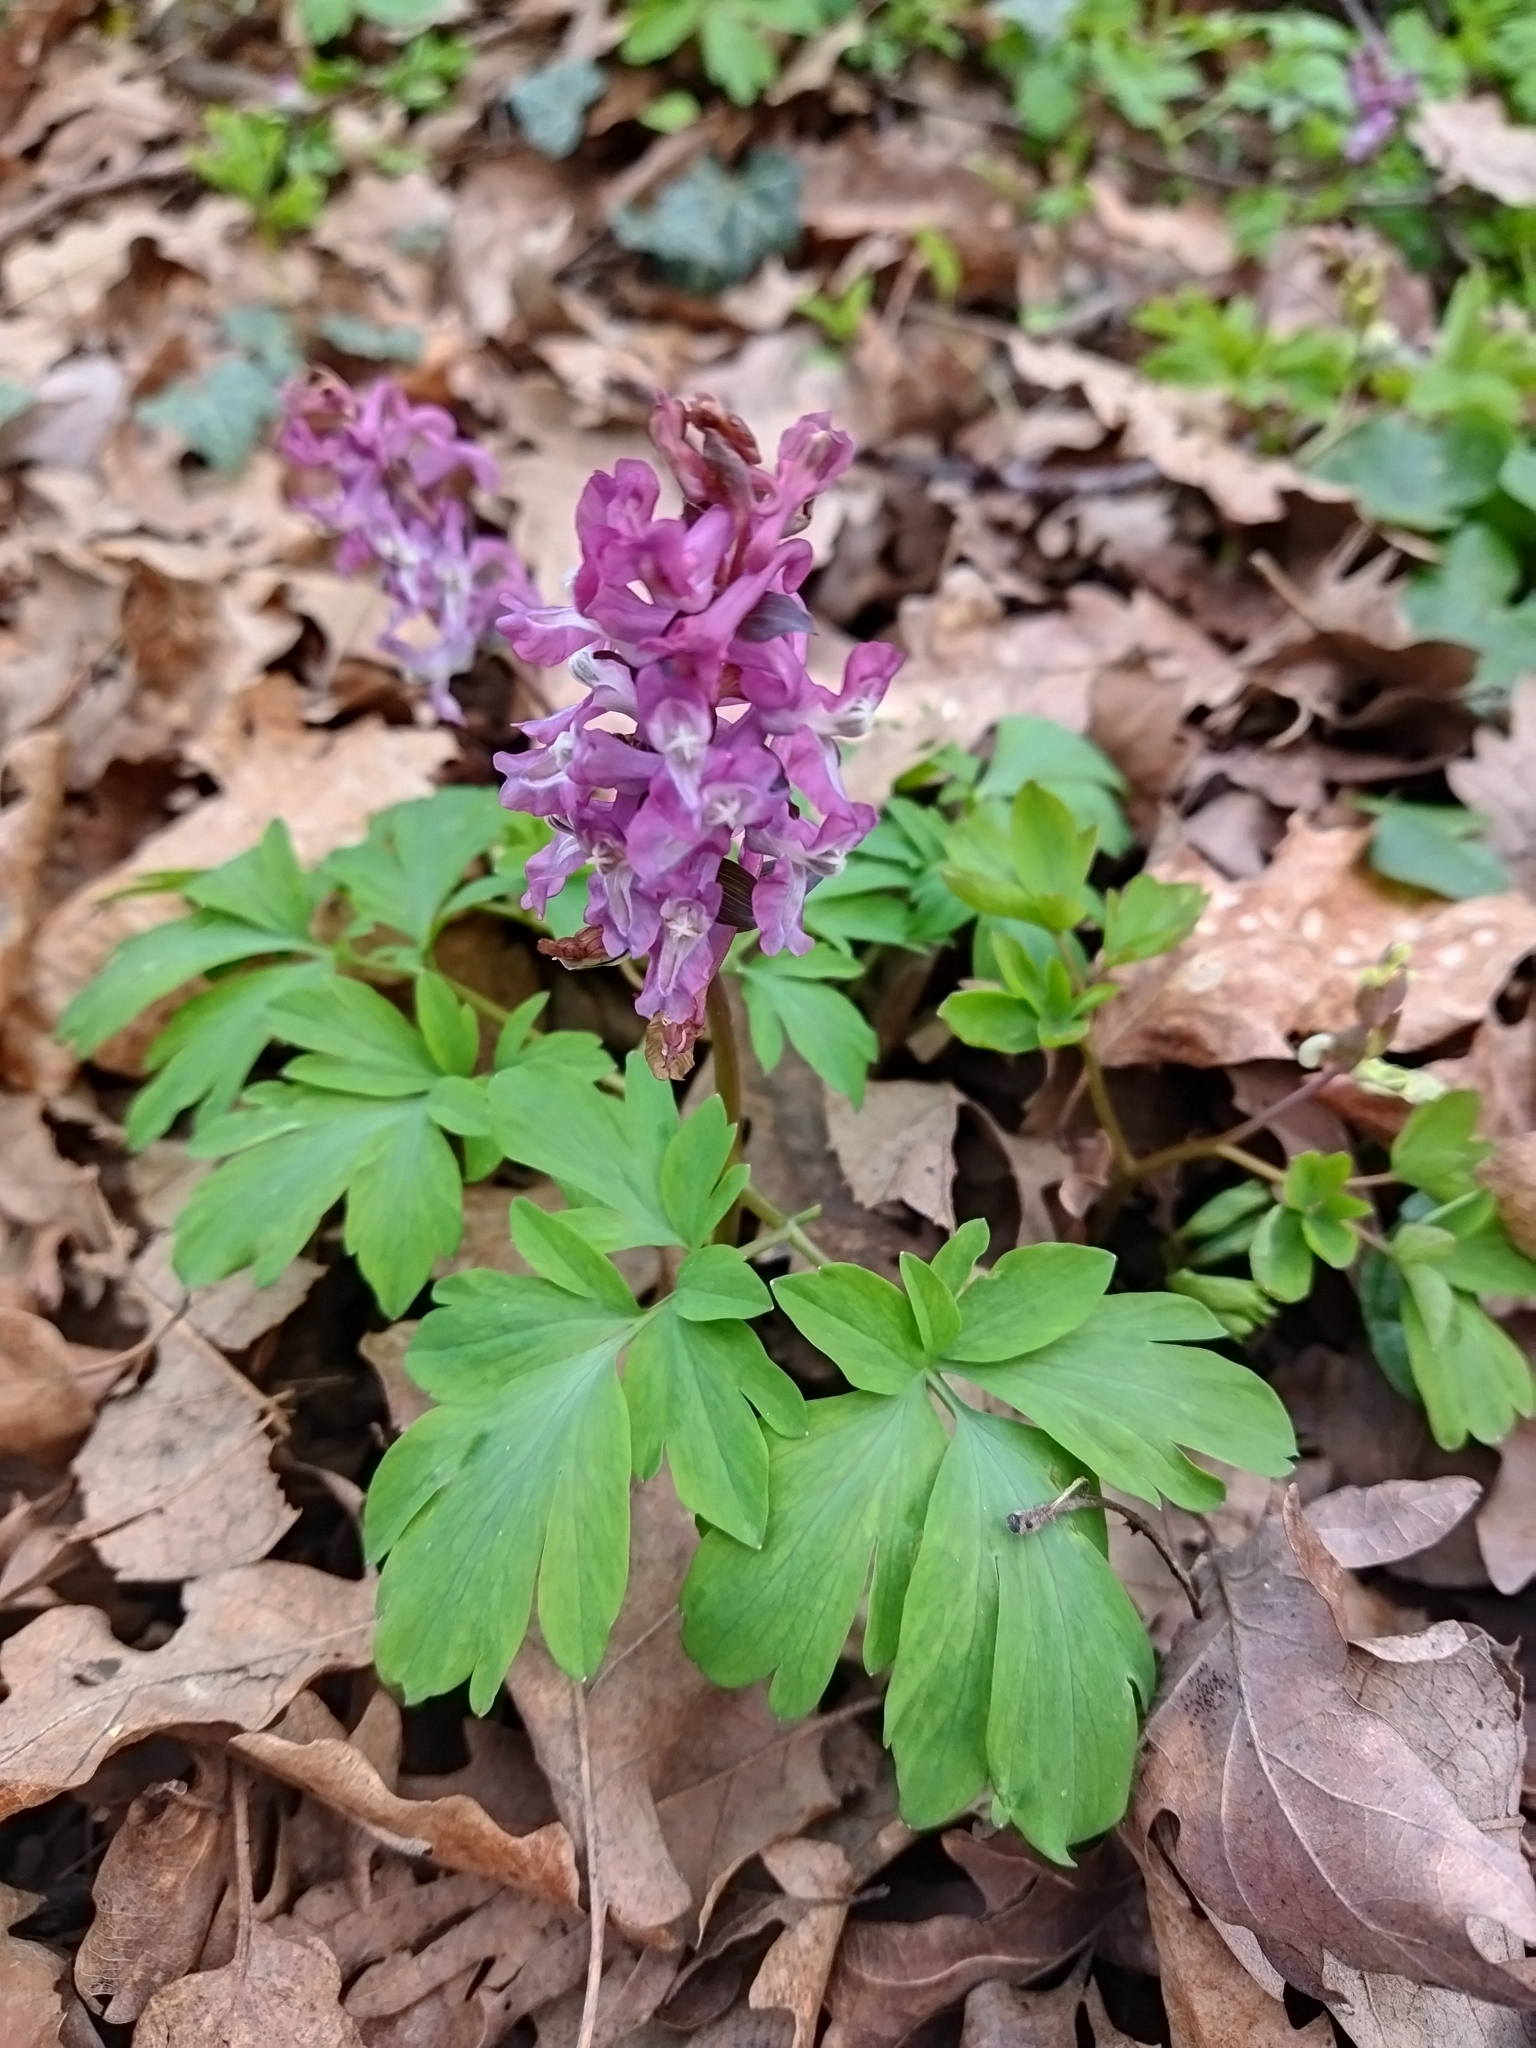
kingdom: Plantae
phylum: Tracheophyta
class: Magnoliopsida
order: Ranunculales
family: Papaveraceae
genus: Corydalis
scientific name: Corydalis cava
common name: Hollowroot
